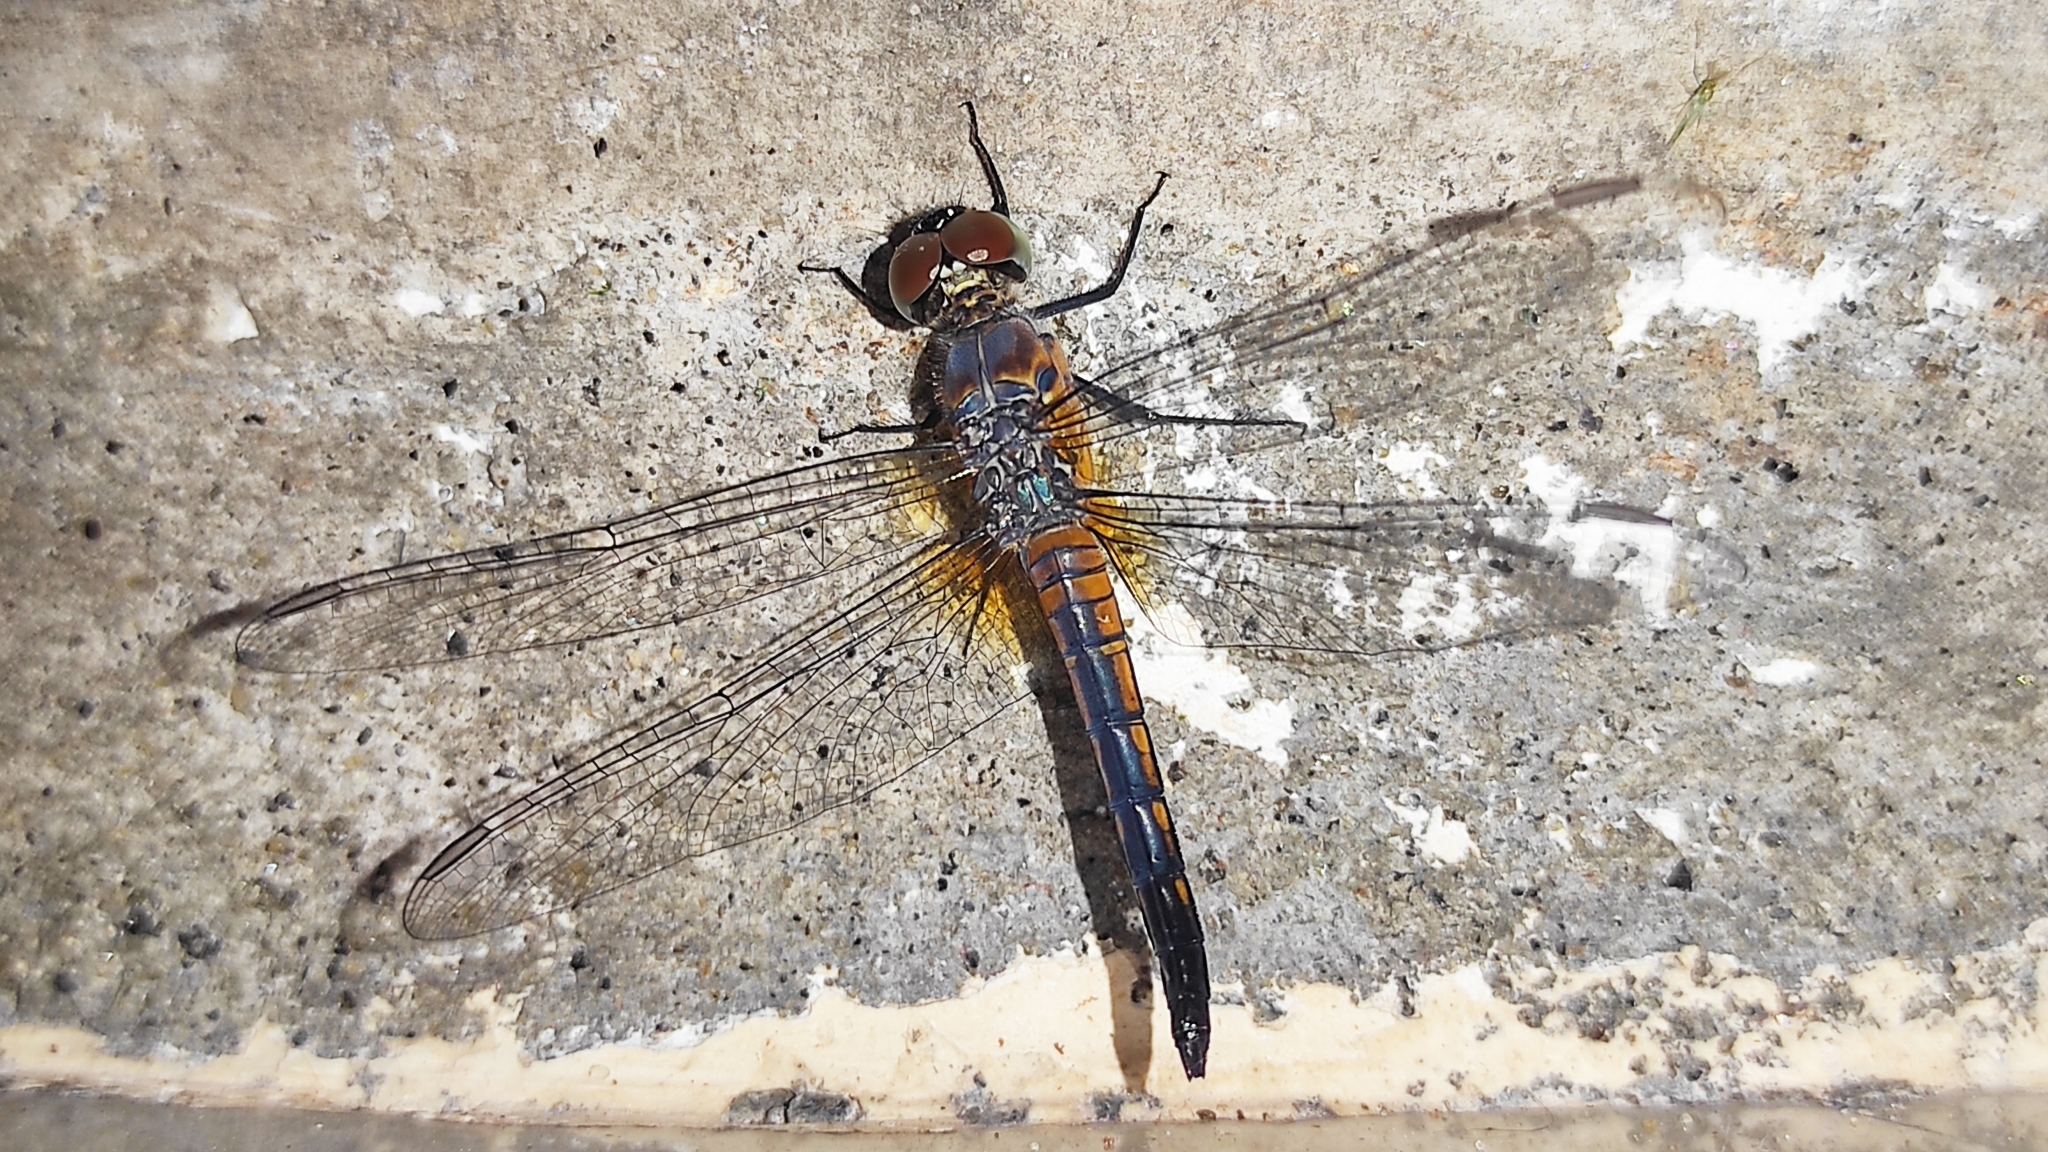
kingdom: Animalia
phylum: Arthropoda
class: Insecta
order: Odonata
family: Libellulidae
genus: Brachydiplax
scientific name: Brachydiplax chalybea
